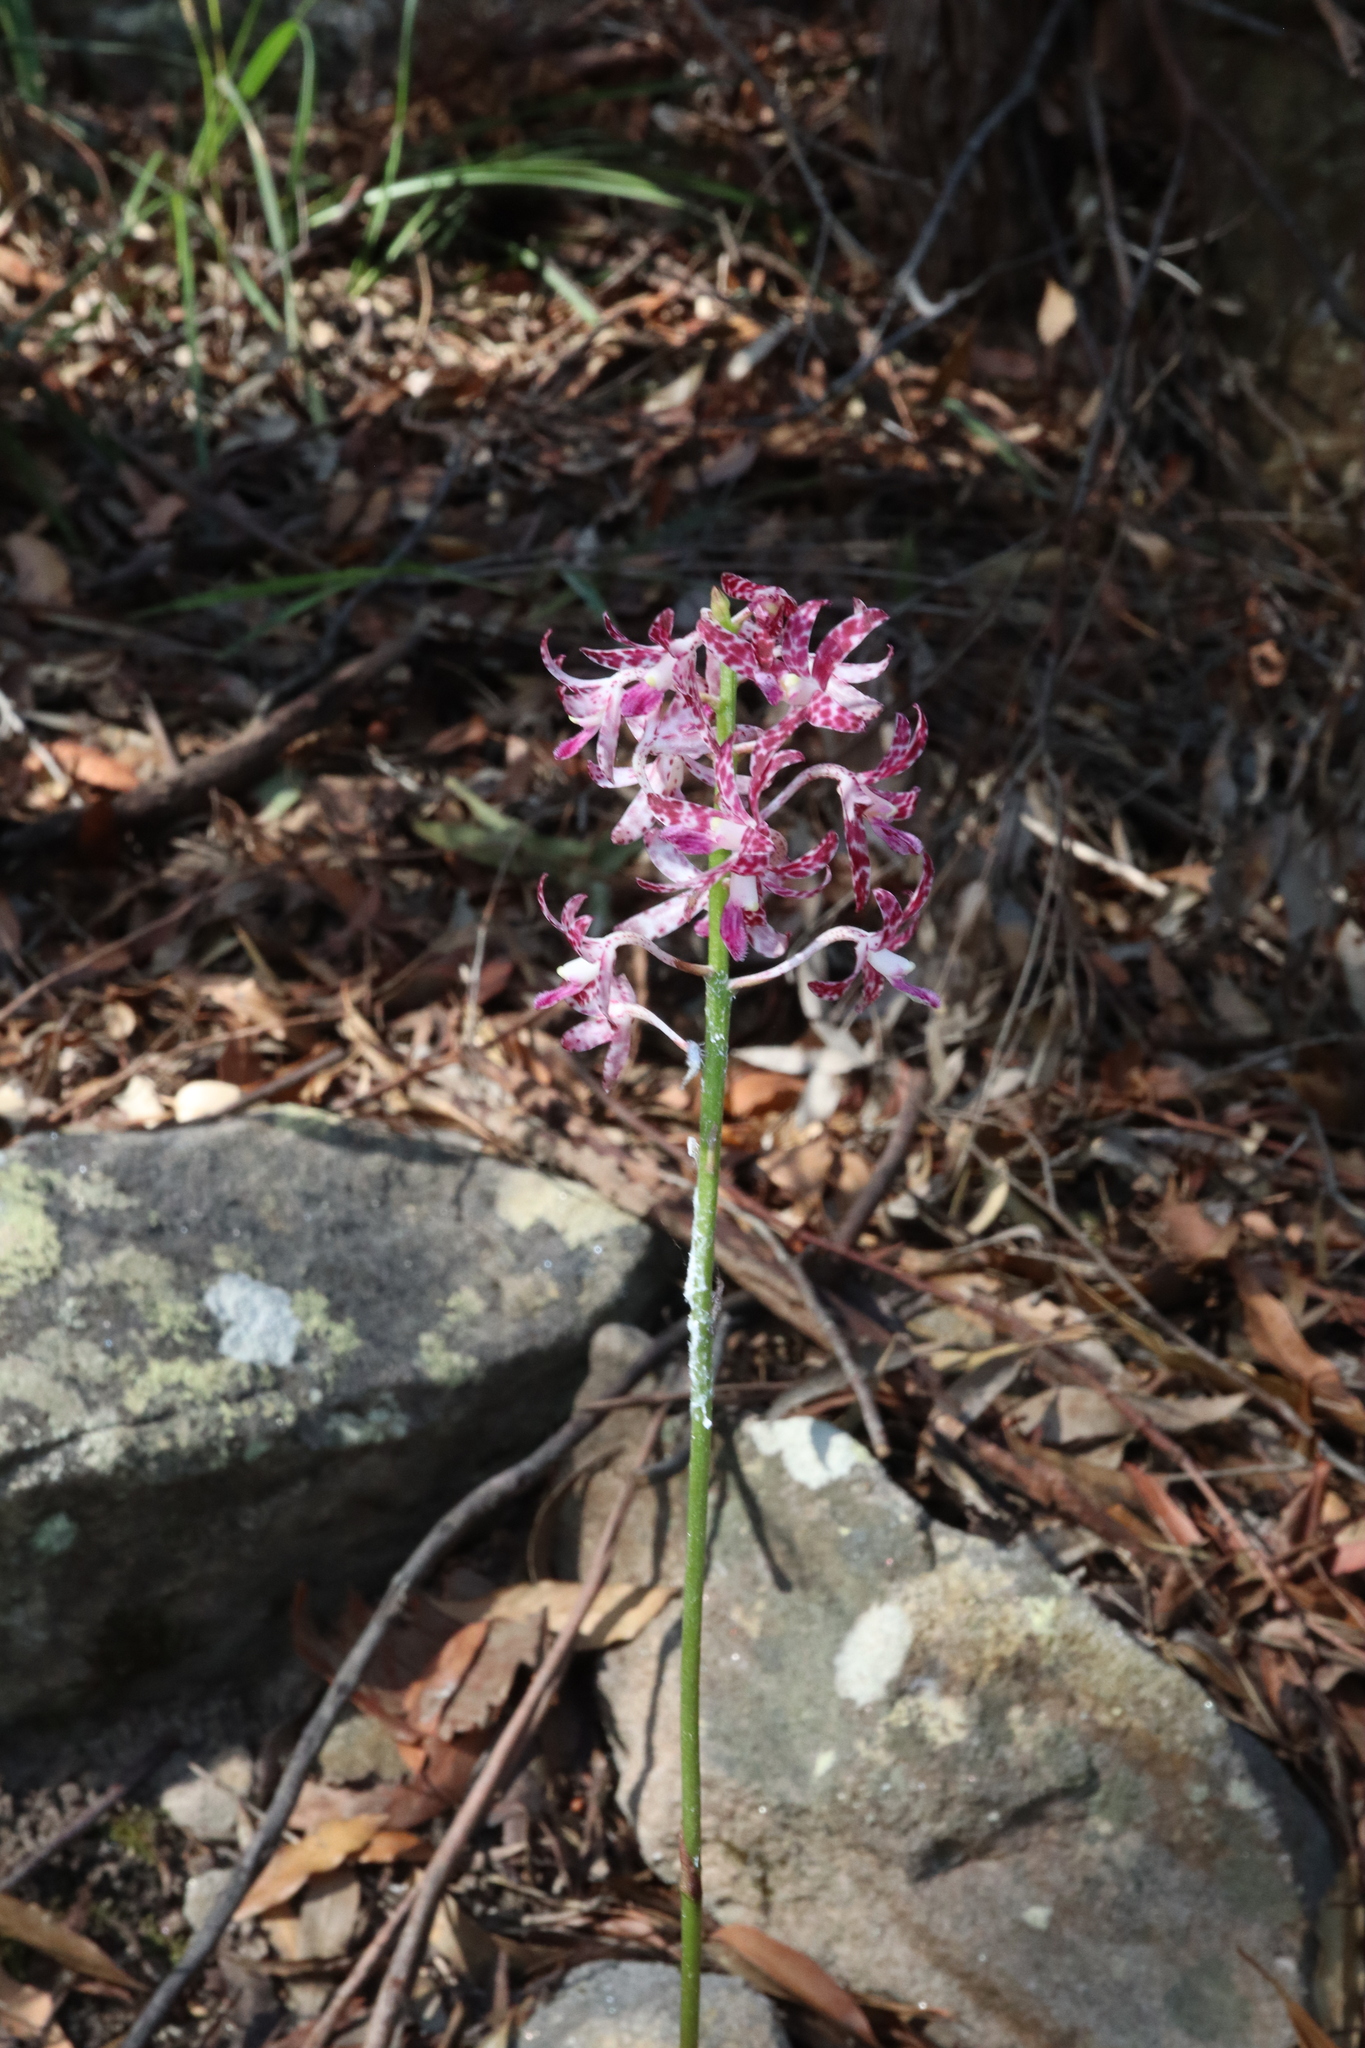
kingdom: Plantae
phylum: Tracheophyta
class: Liliopsida
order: Asparagales
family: Orchidaceae
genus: Dipodium
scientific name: Dipodium variegatum
